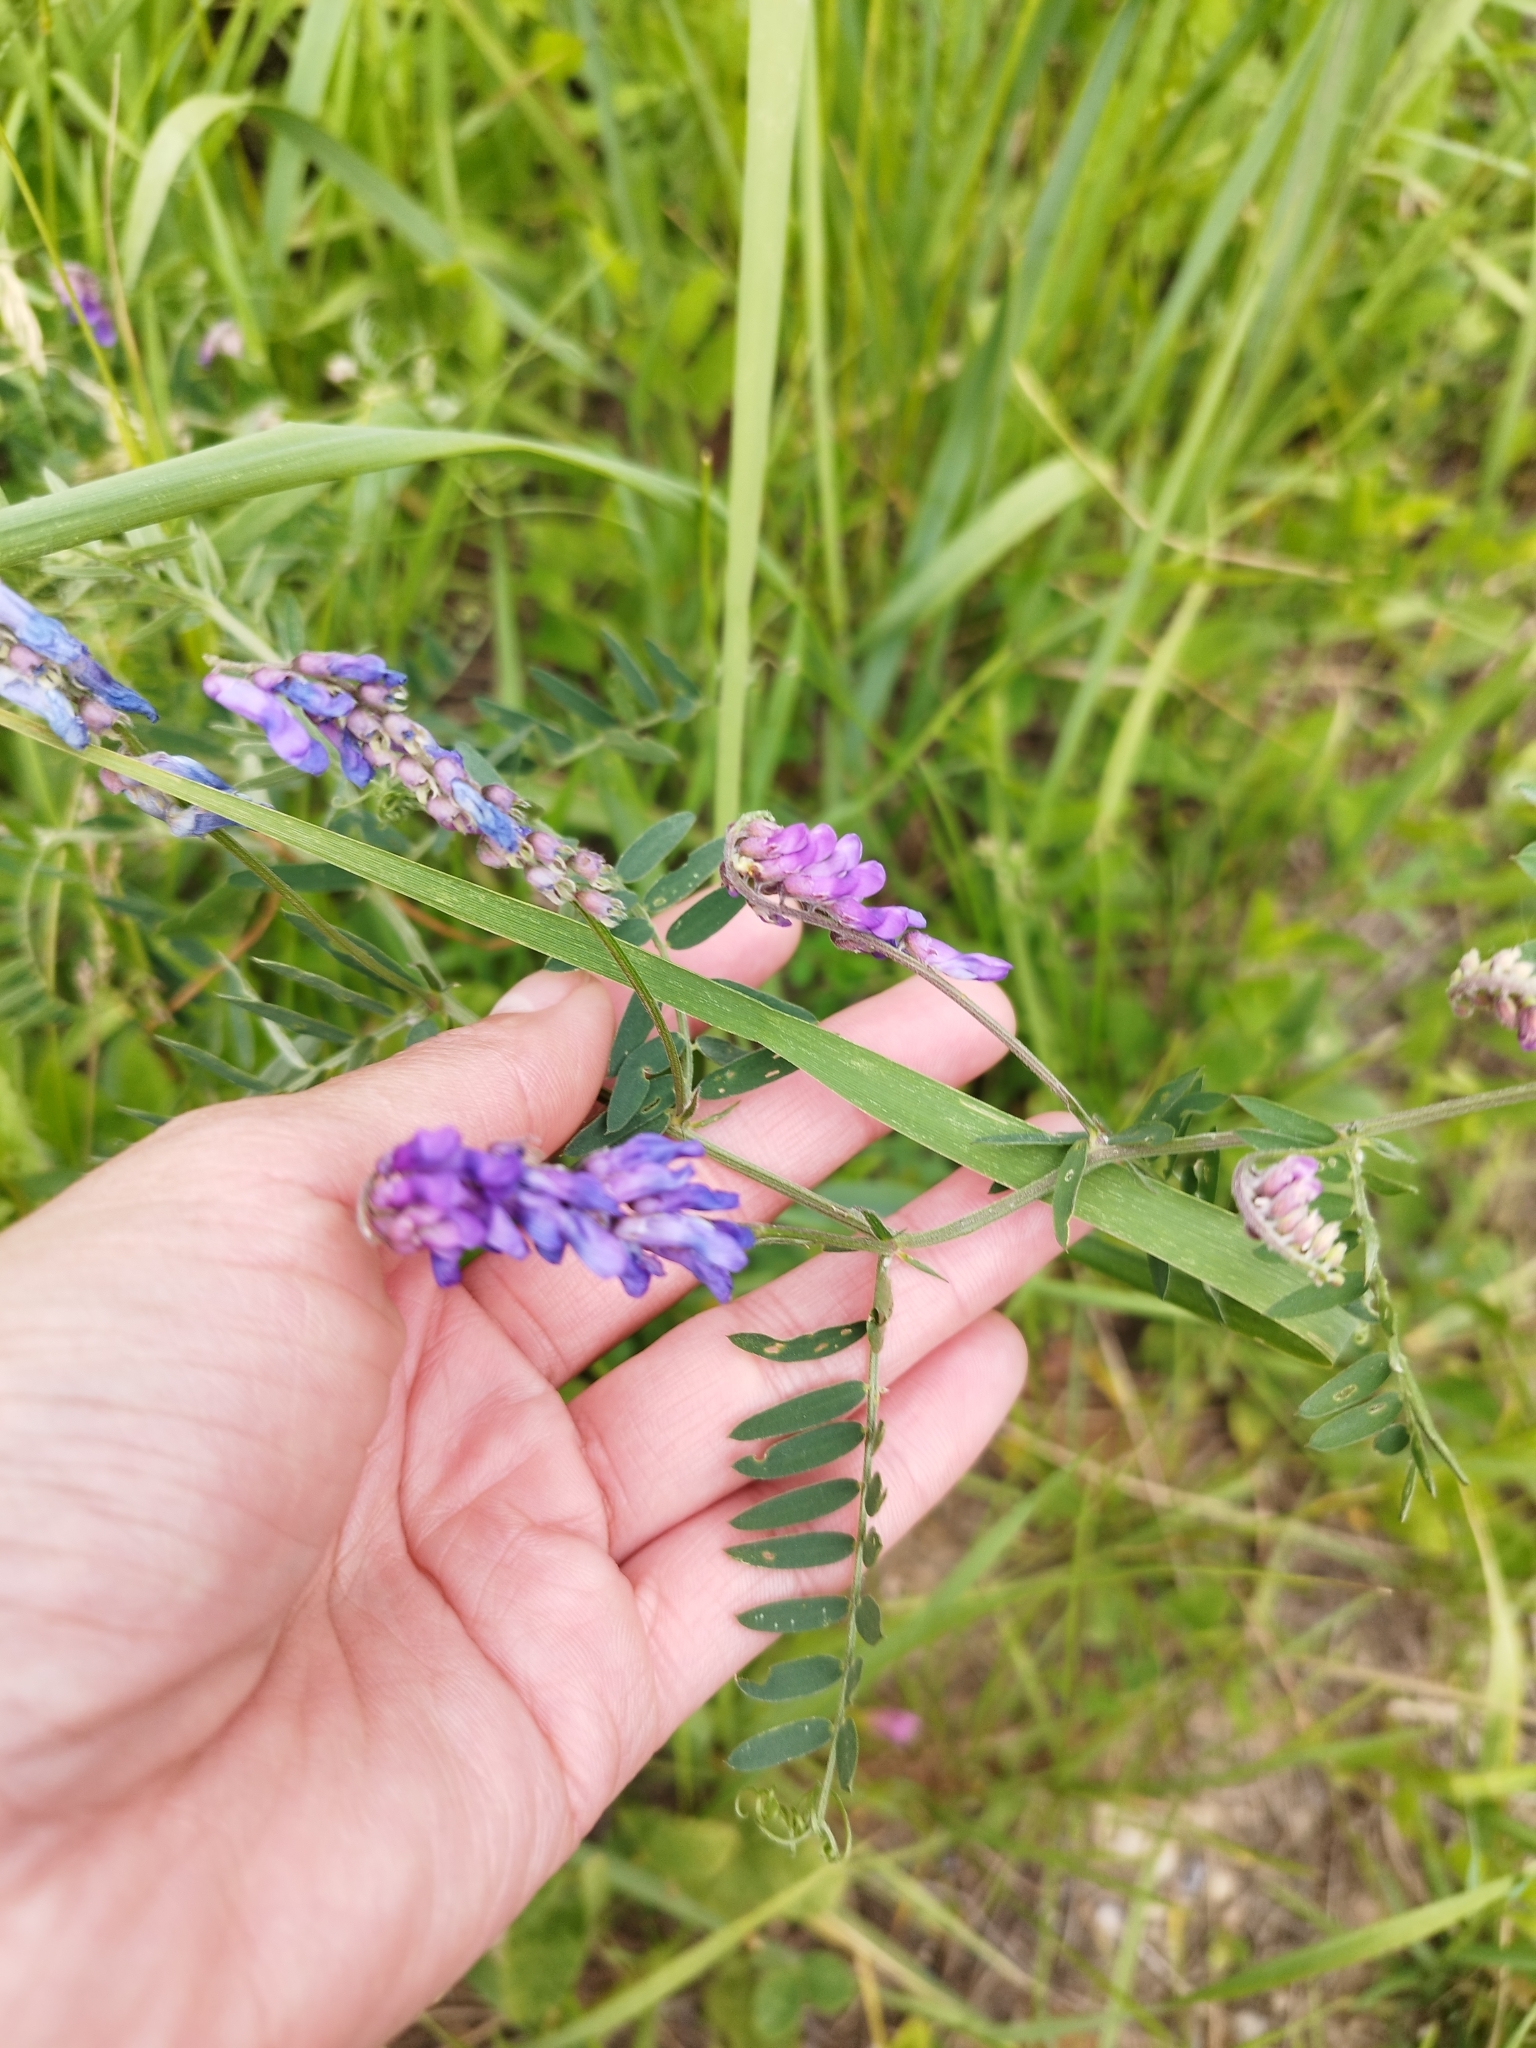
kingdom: Plantae
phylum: Tracheophyta
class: Magnoliopsida
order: Fabales
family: Fabaceae
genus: Vicia
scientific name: Vicia cracca
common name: Bird vetch
